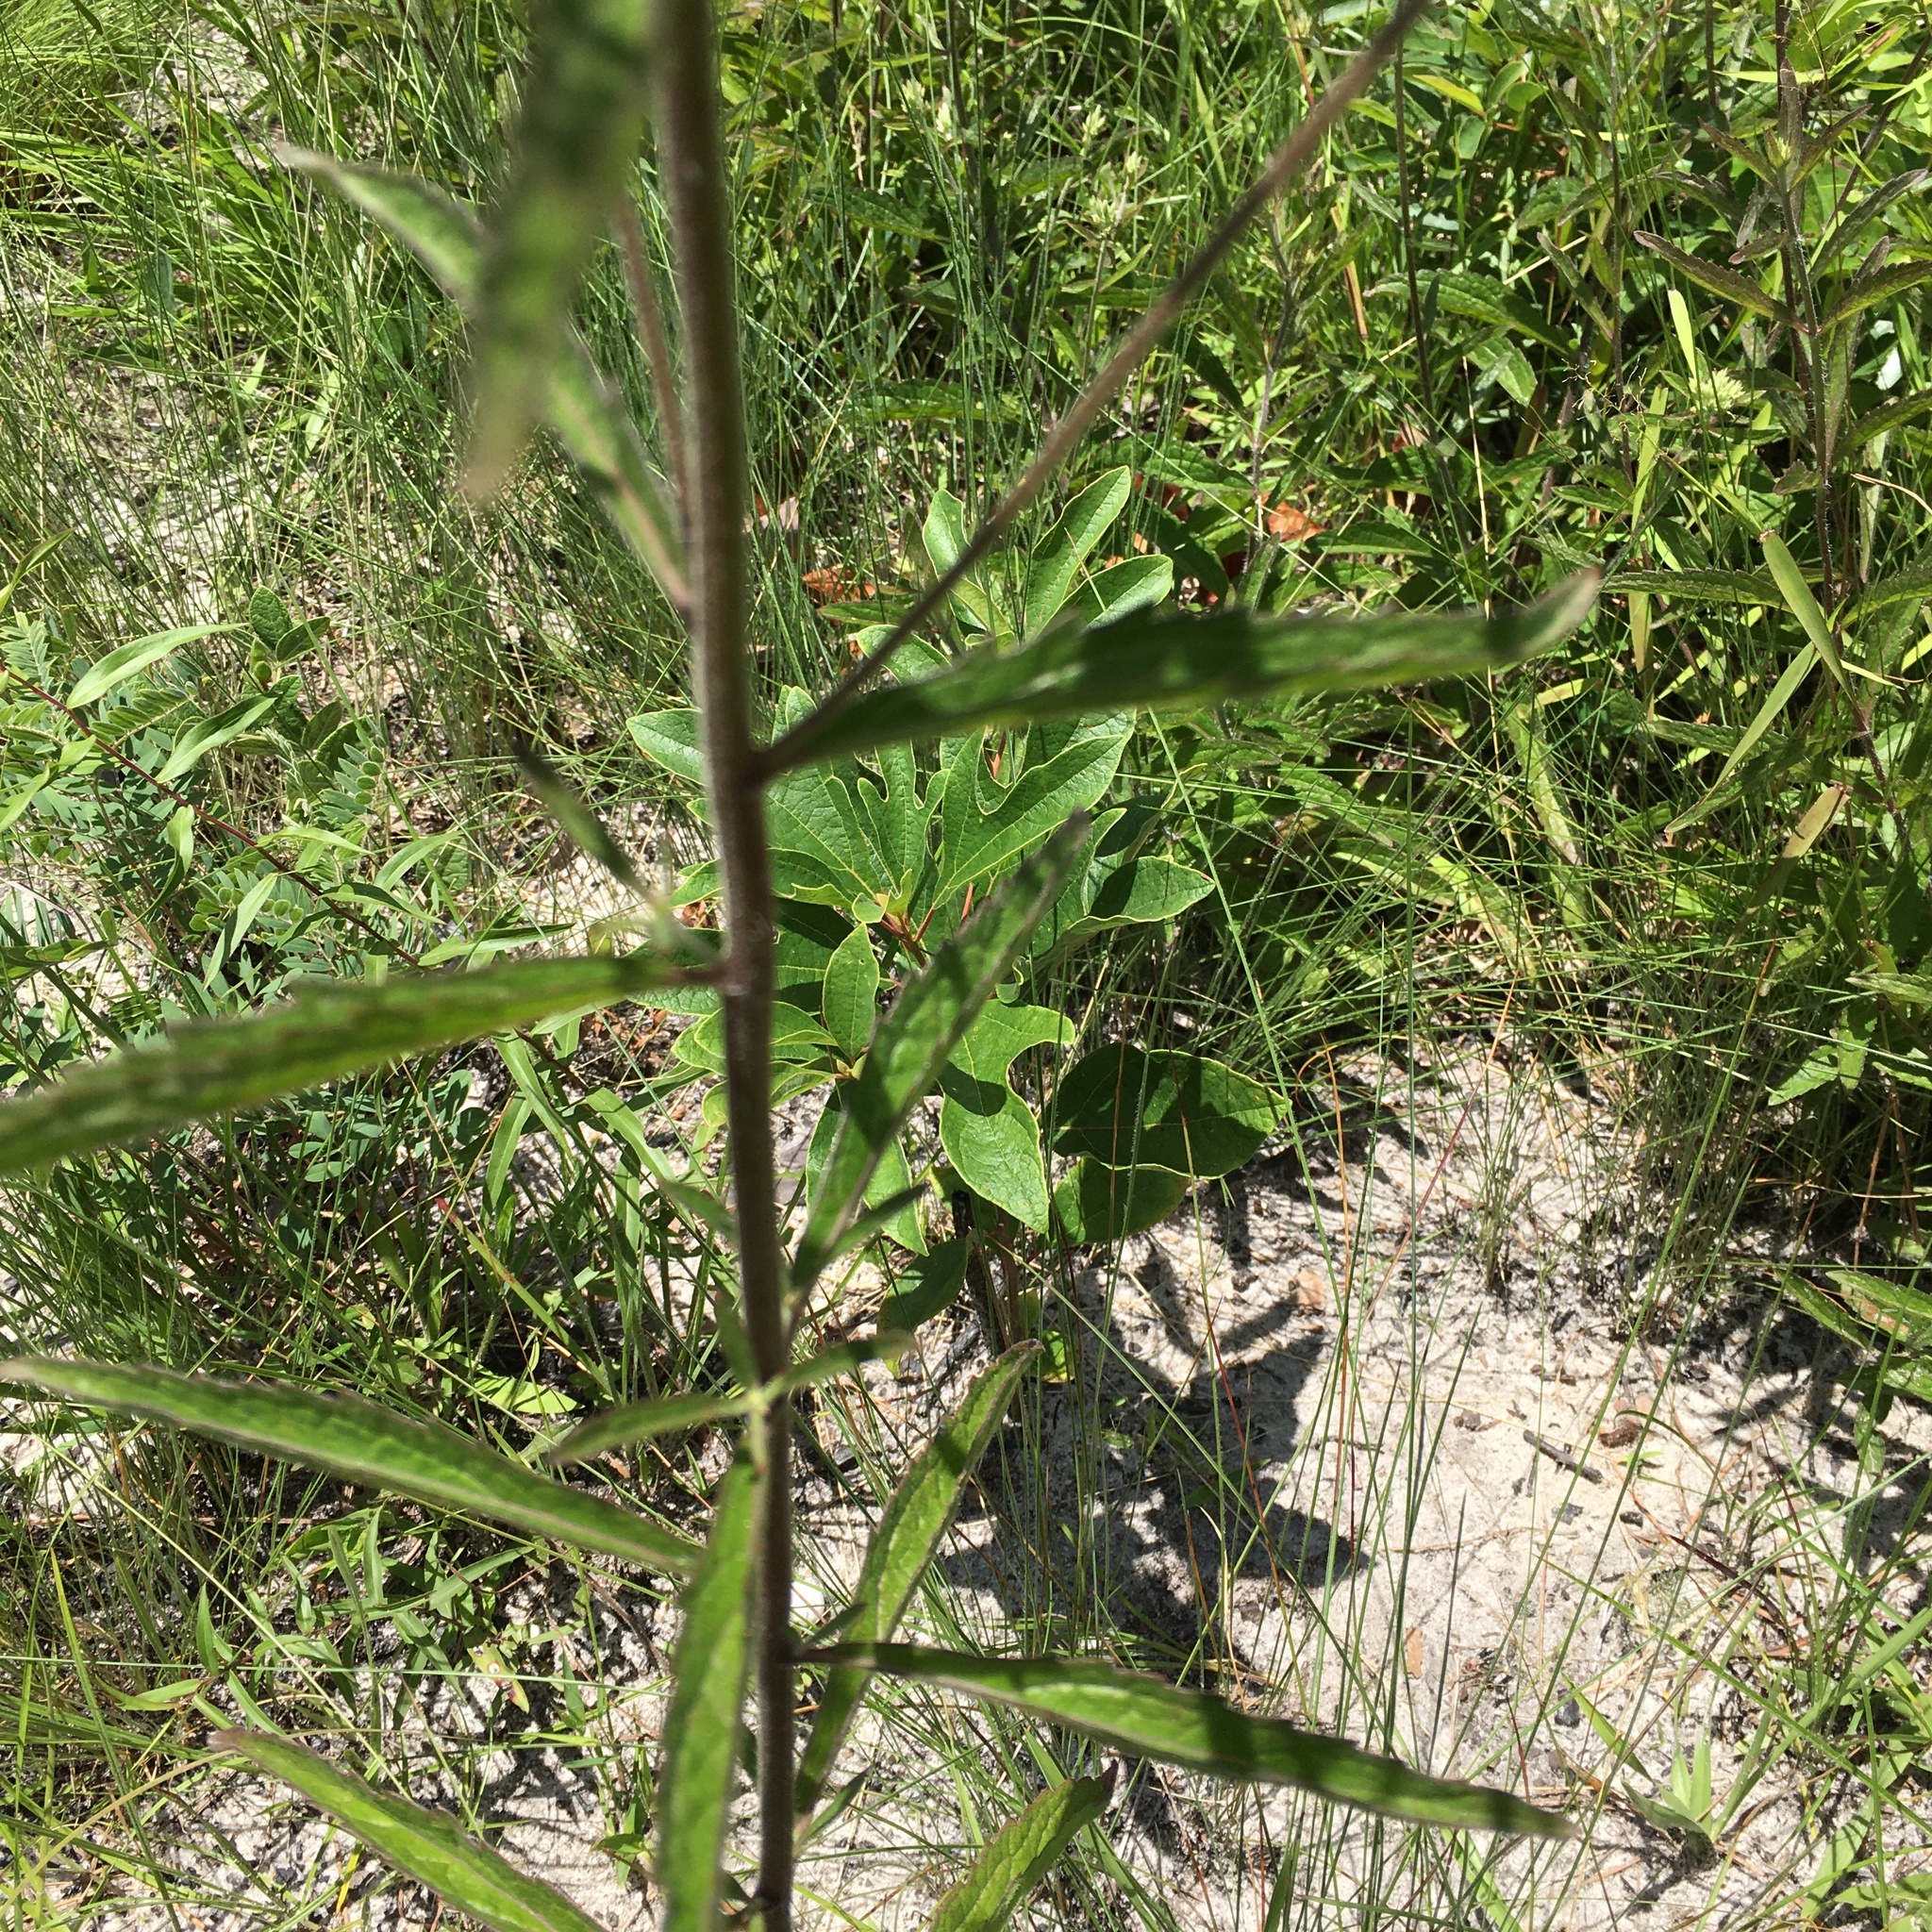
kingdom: Plantae
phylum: Tracheophyta
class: Magnoliopsida
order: Asterales
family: Asteraceae
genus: Eupatorium
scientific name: Eupatorium album
